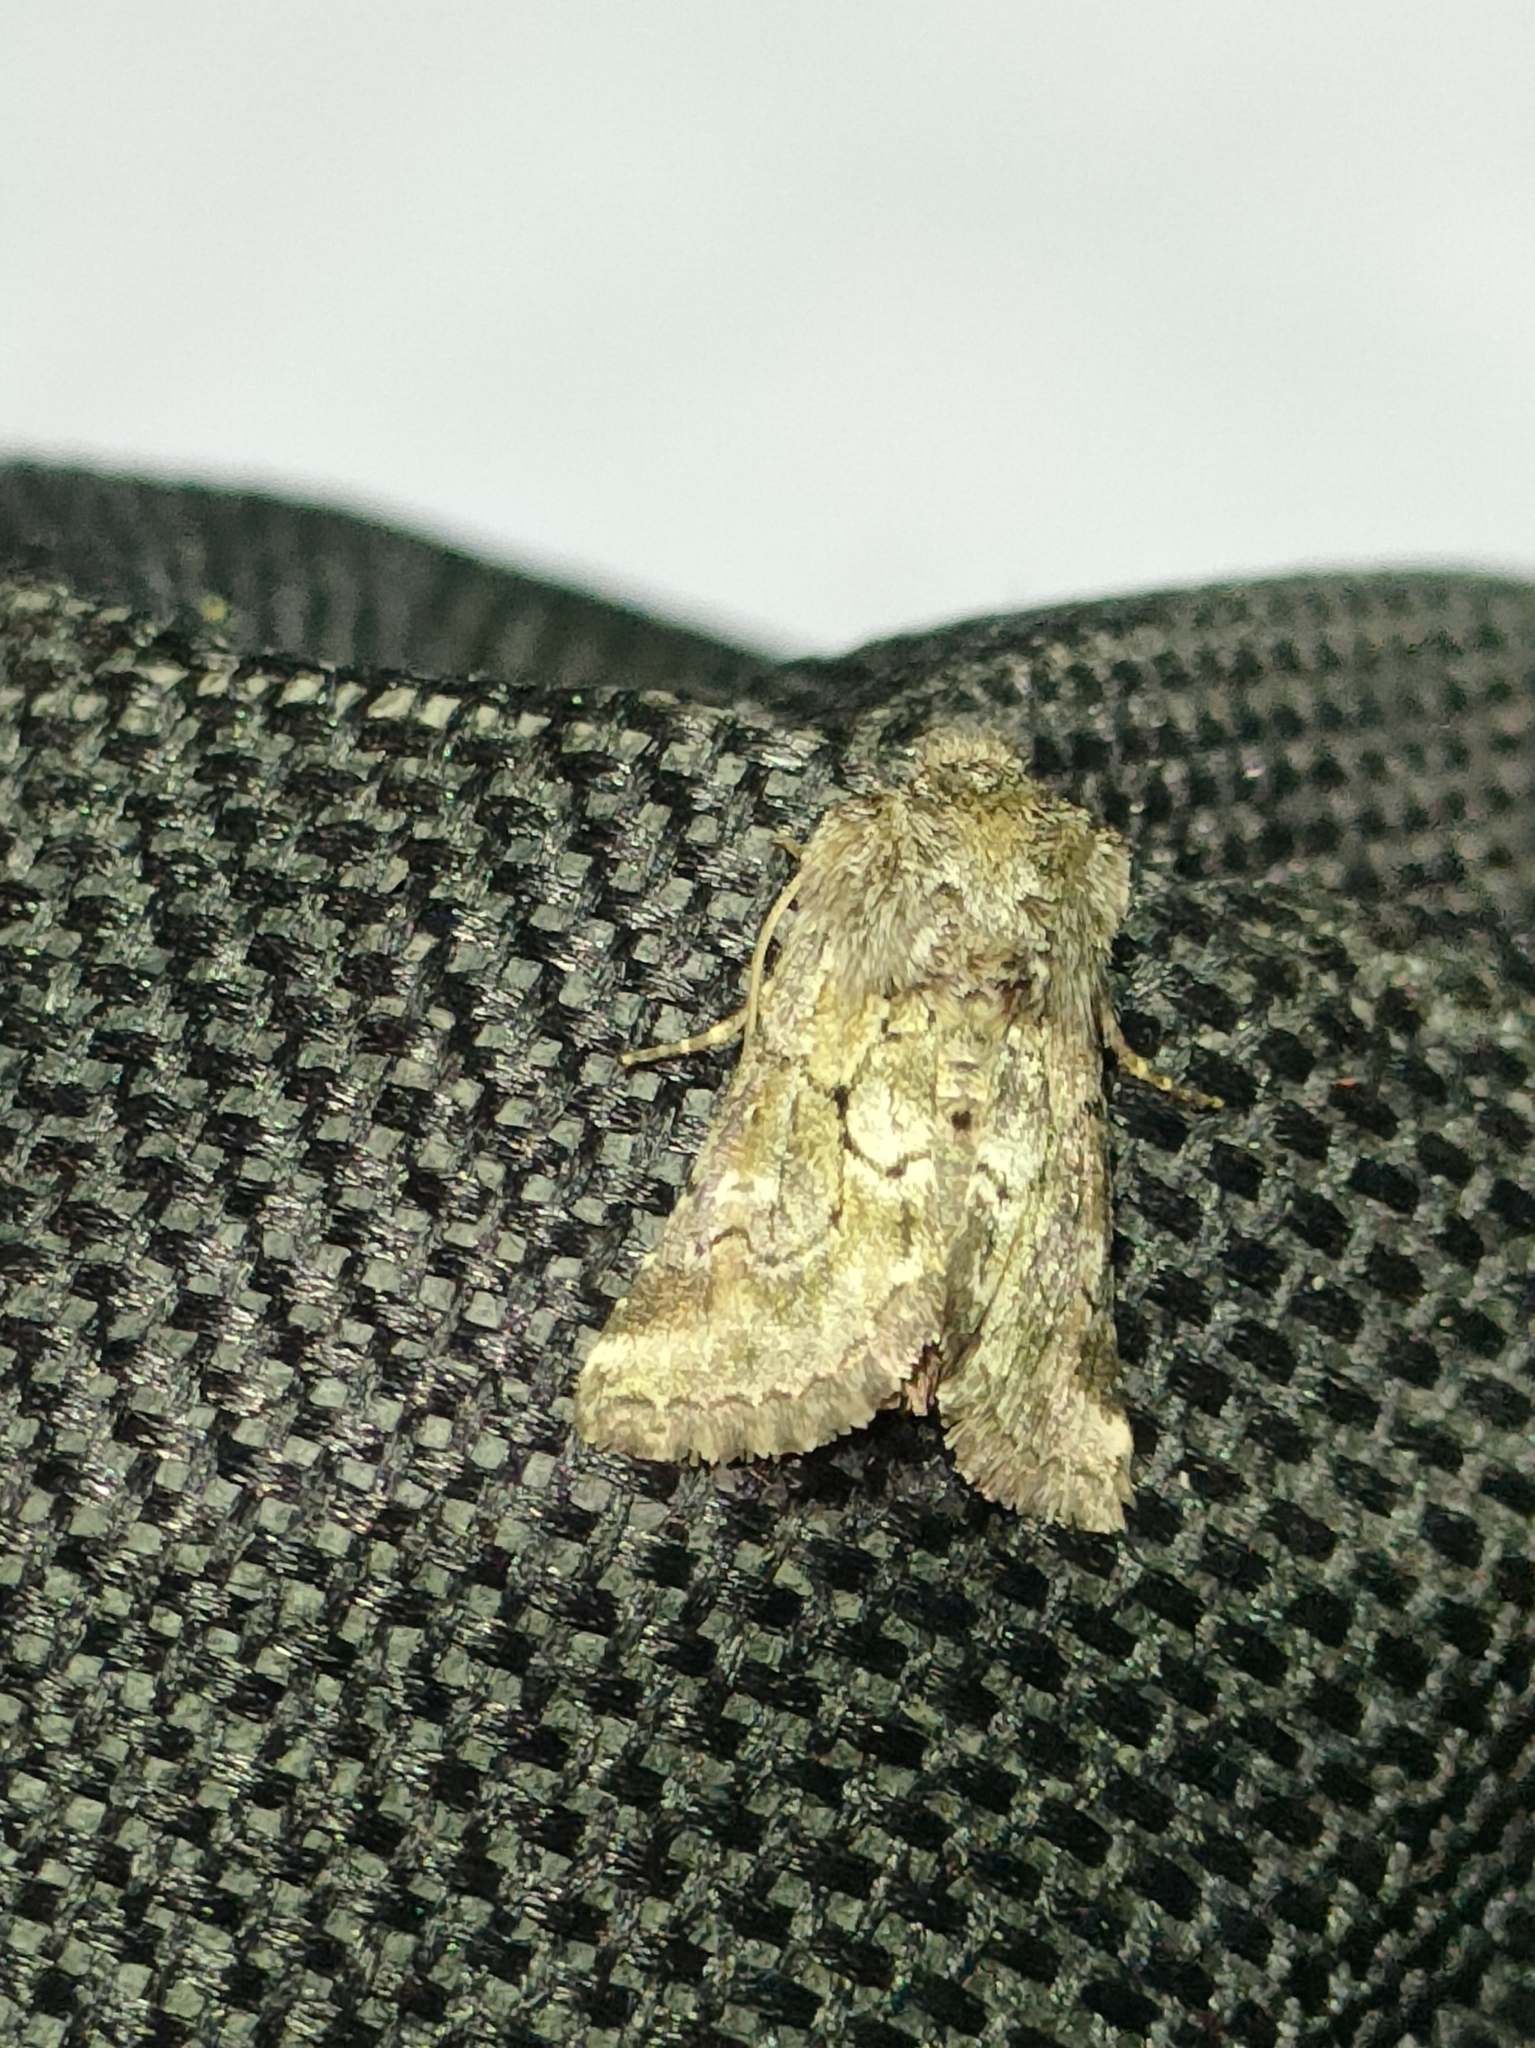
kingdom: Animalia
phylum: Arthropoda
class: Insecta
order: Lepidoptera
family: Noctuidae
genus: Cleonymia
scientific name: Cleonymia yvanii
